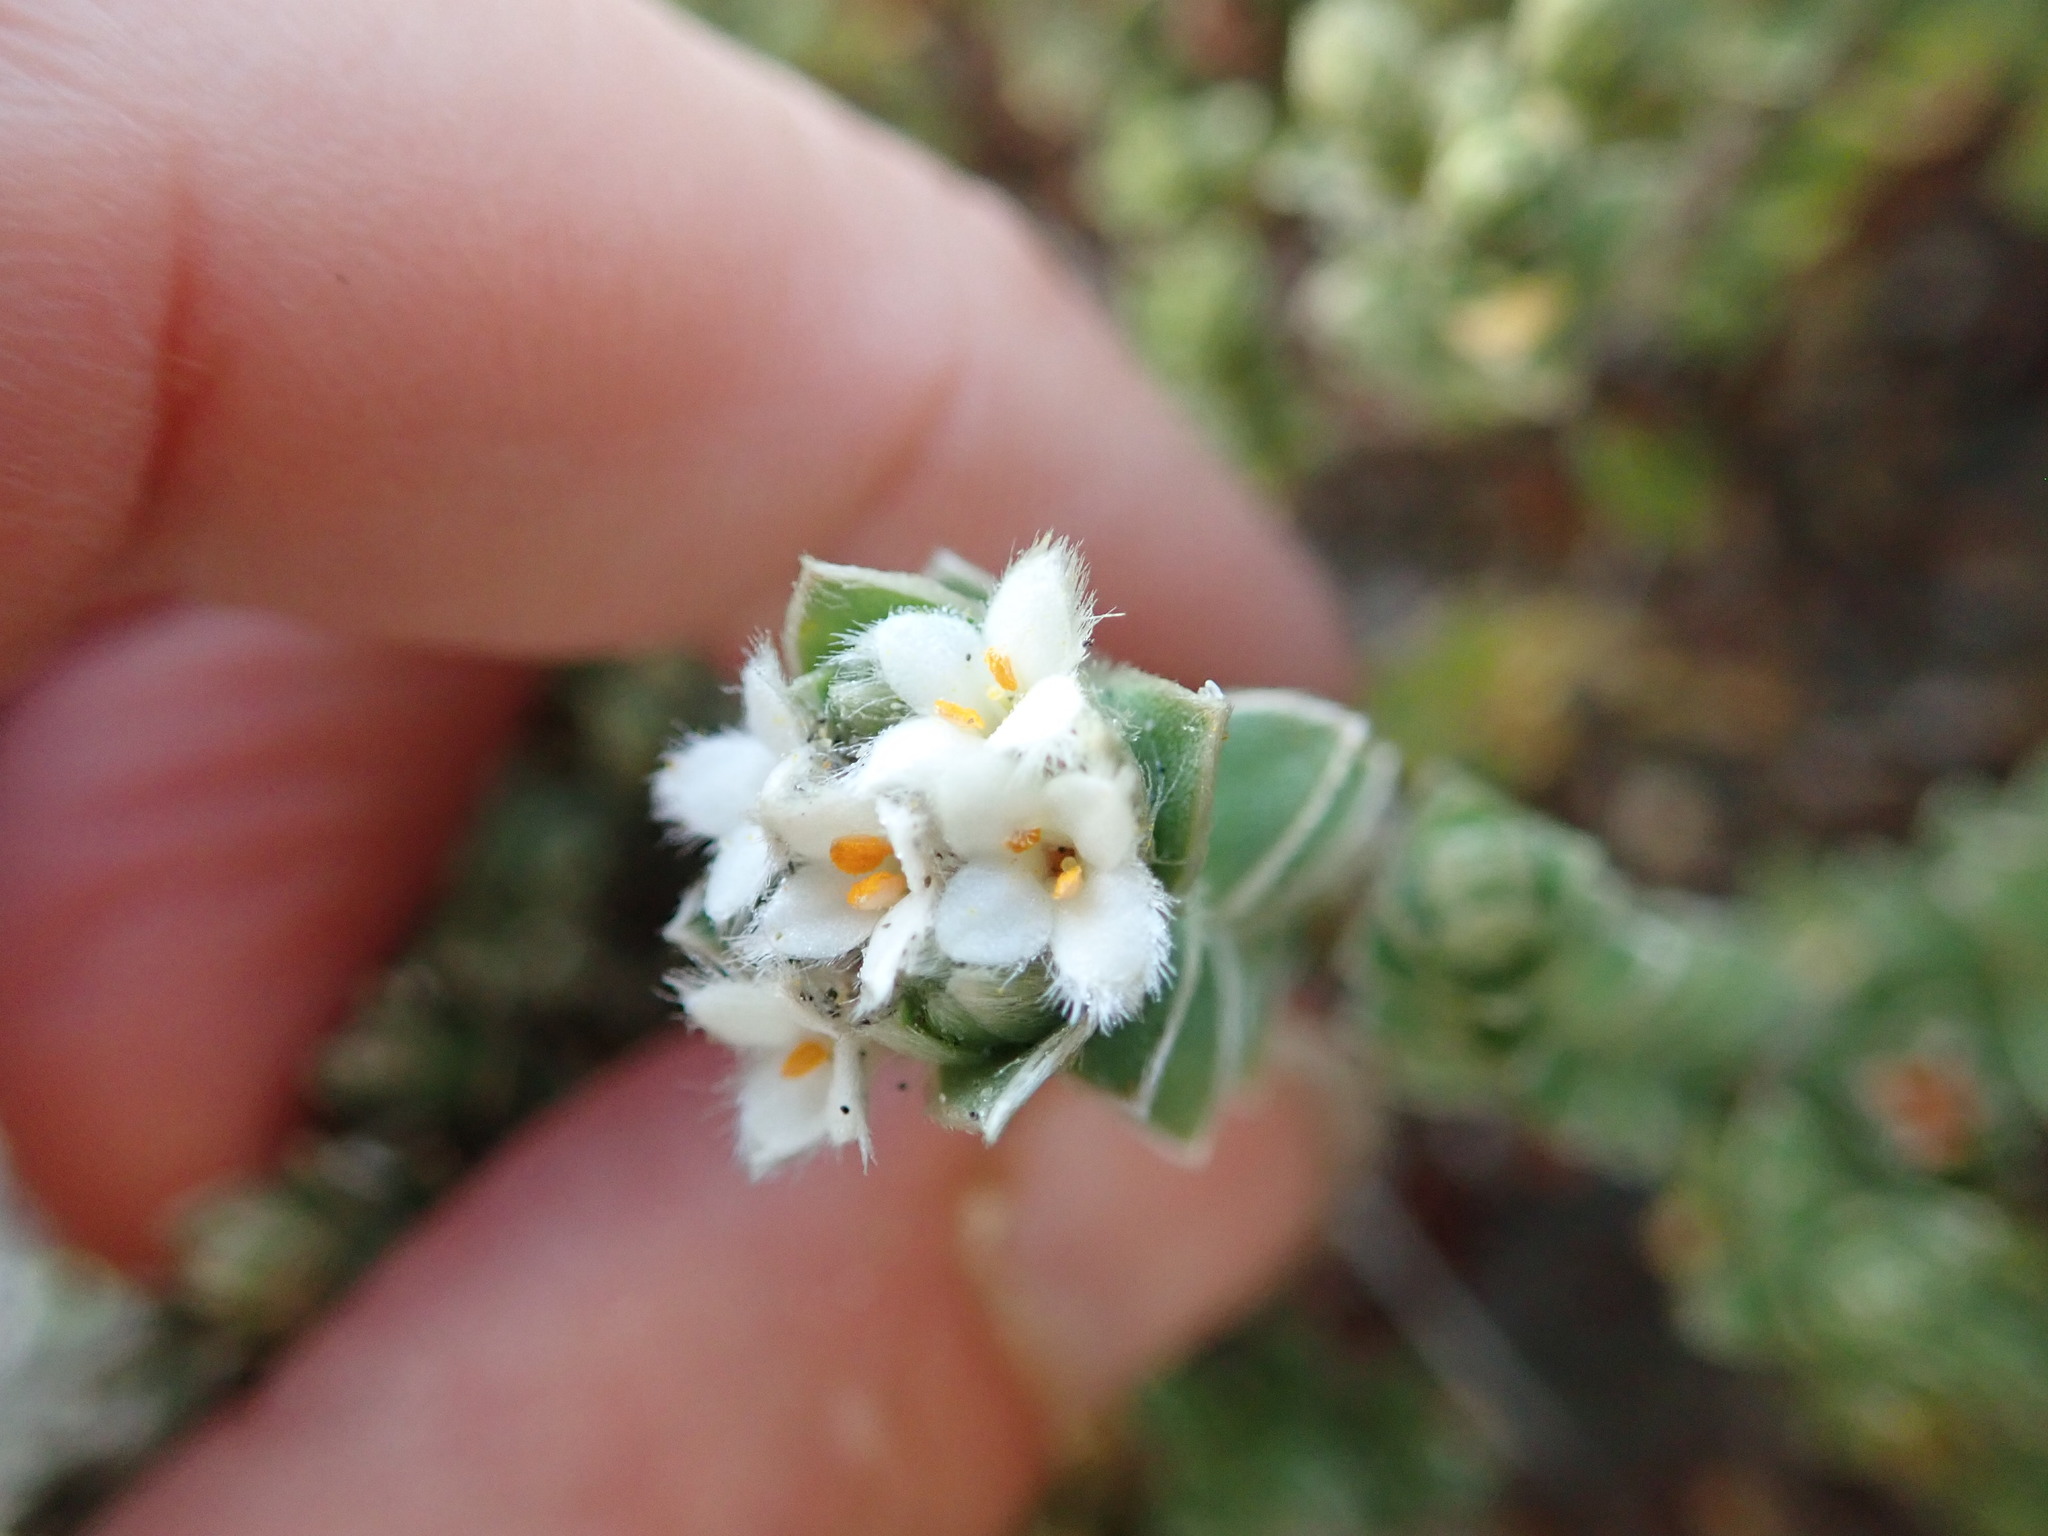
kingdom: Plantae
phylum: Tracheophyta
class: Magnoliopsida
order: Malvales
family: Thymelaeaceae
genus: Pimelea
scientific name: Pimelea villosa
